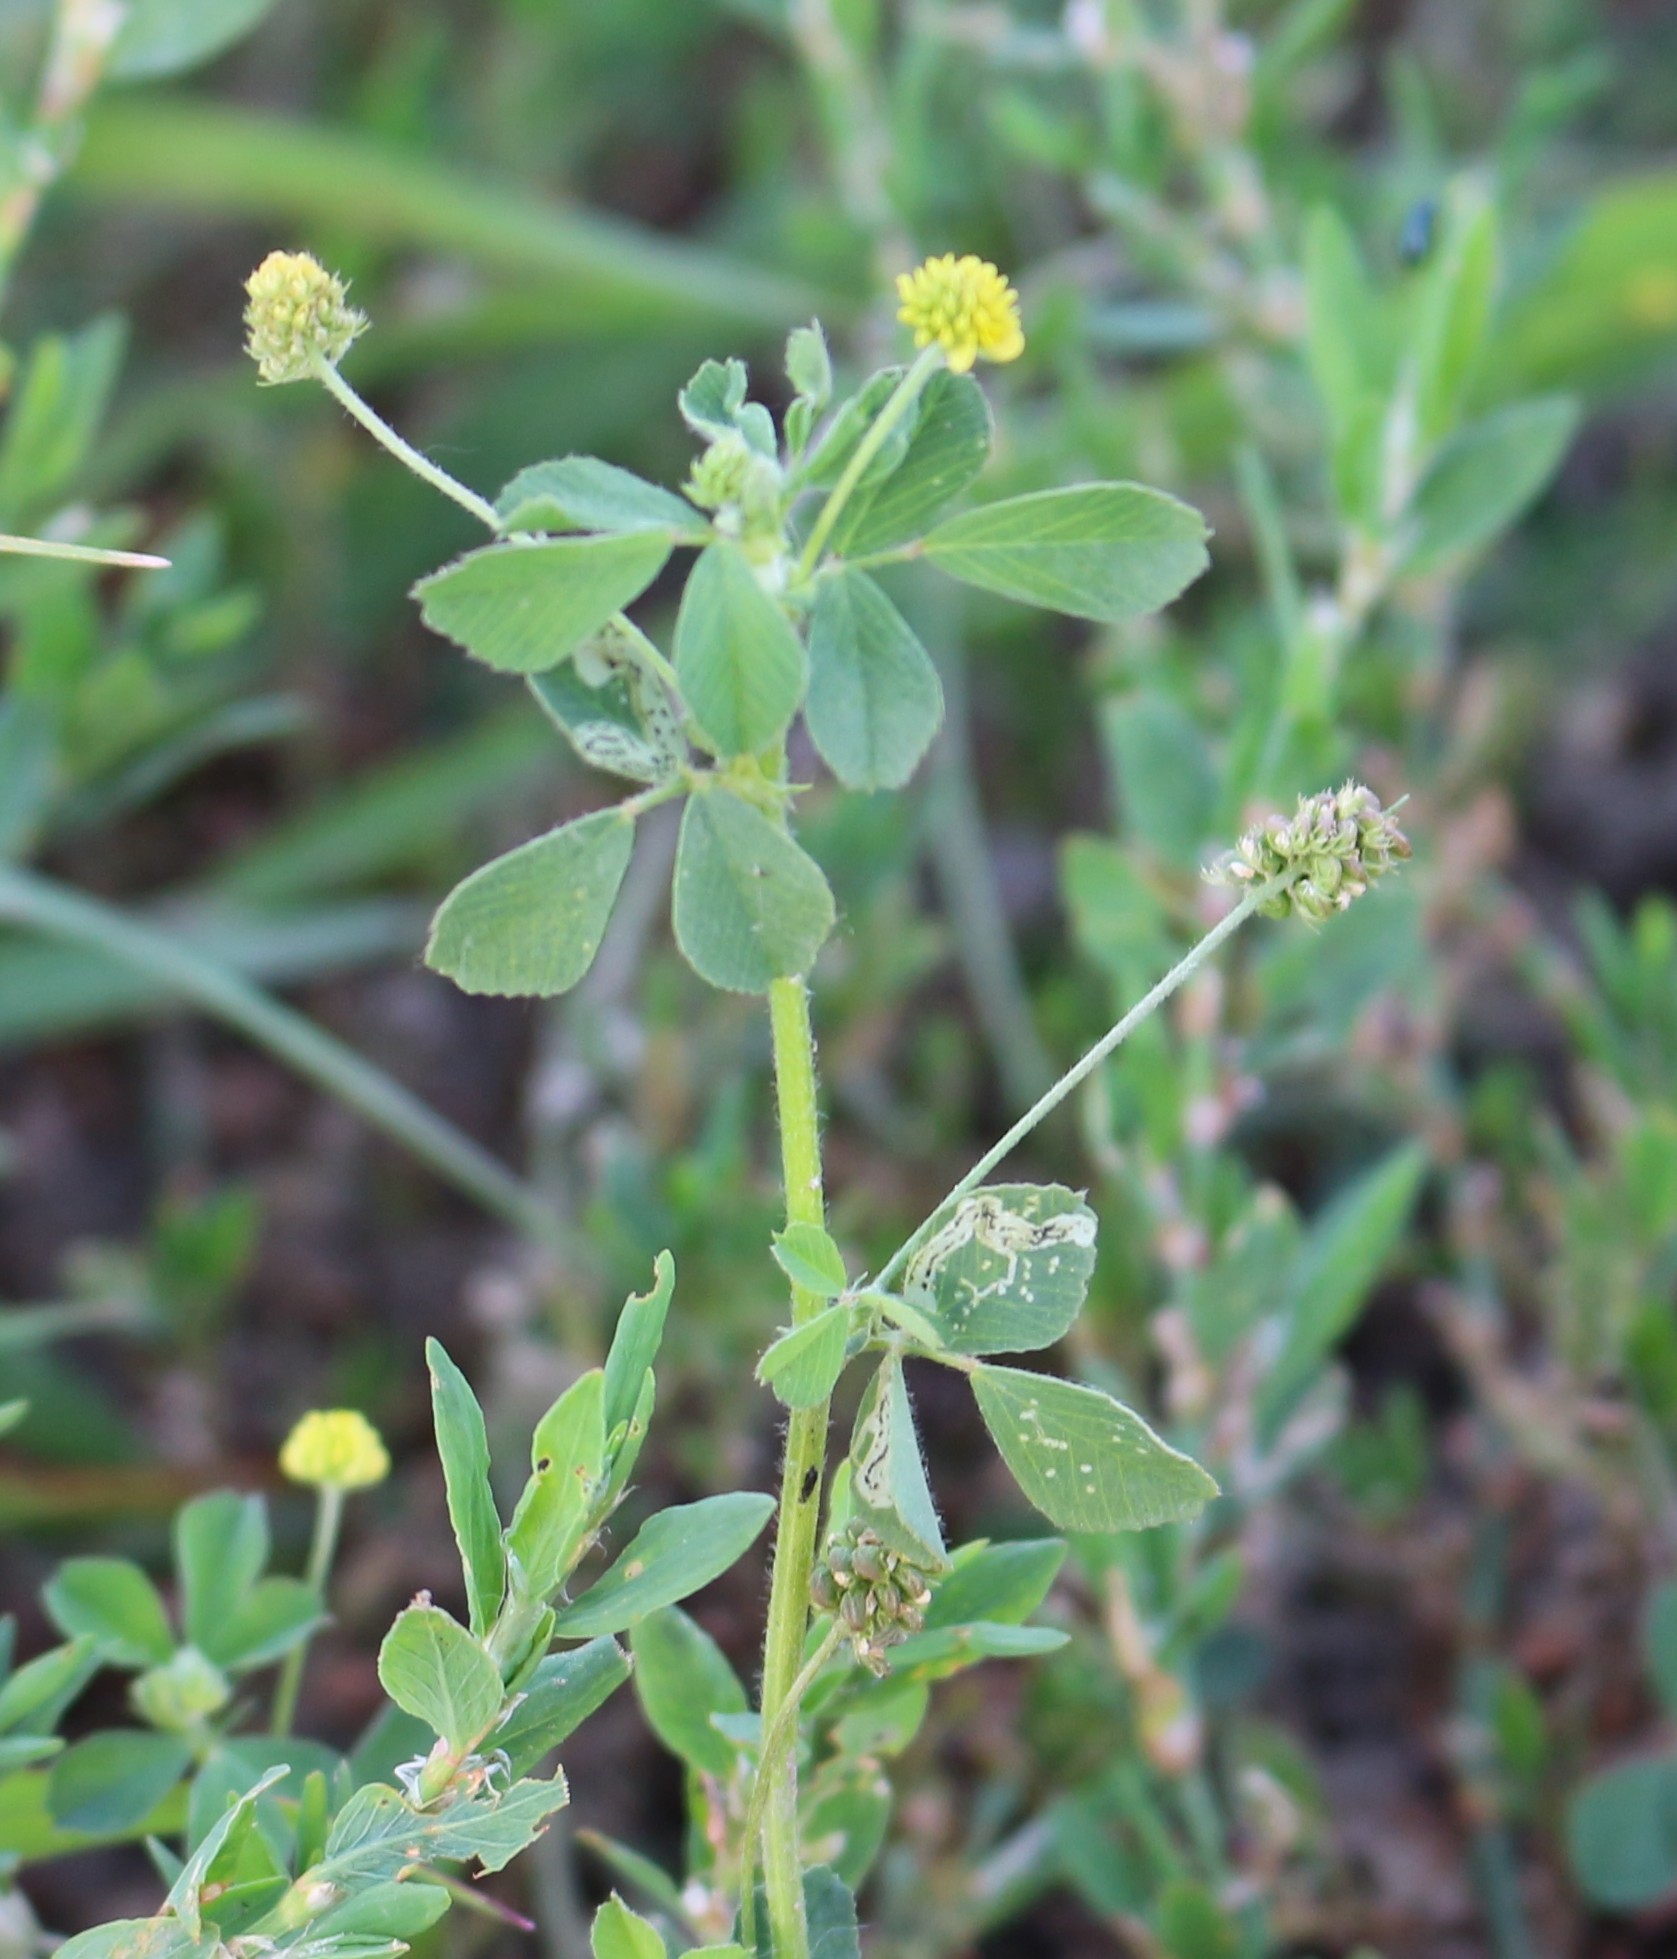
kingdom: Plantae
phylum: Tracheophyta
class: Magnoliopsida
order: Fabales
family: Fabaceae
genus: Medicago
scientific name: Medicago lupulina
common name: Black medick
